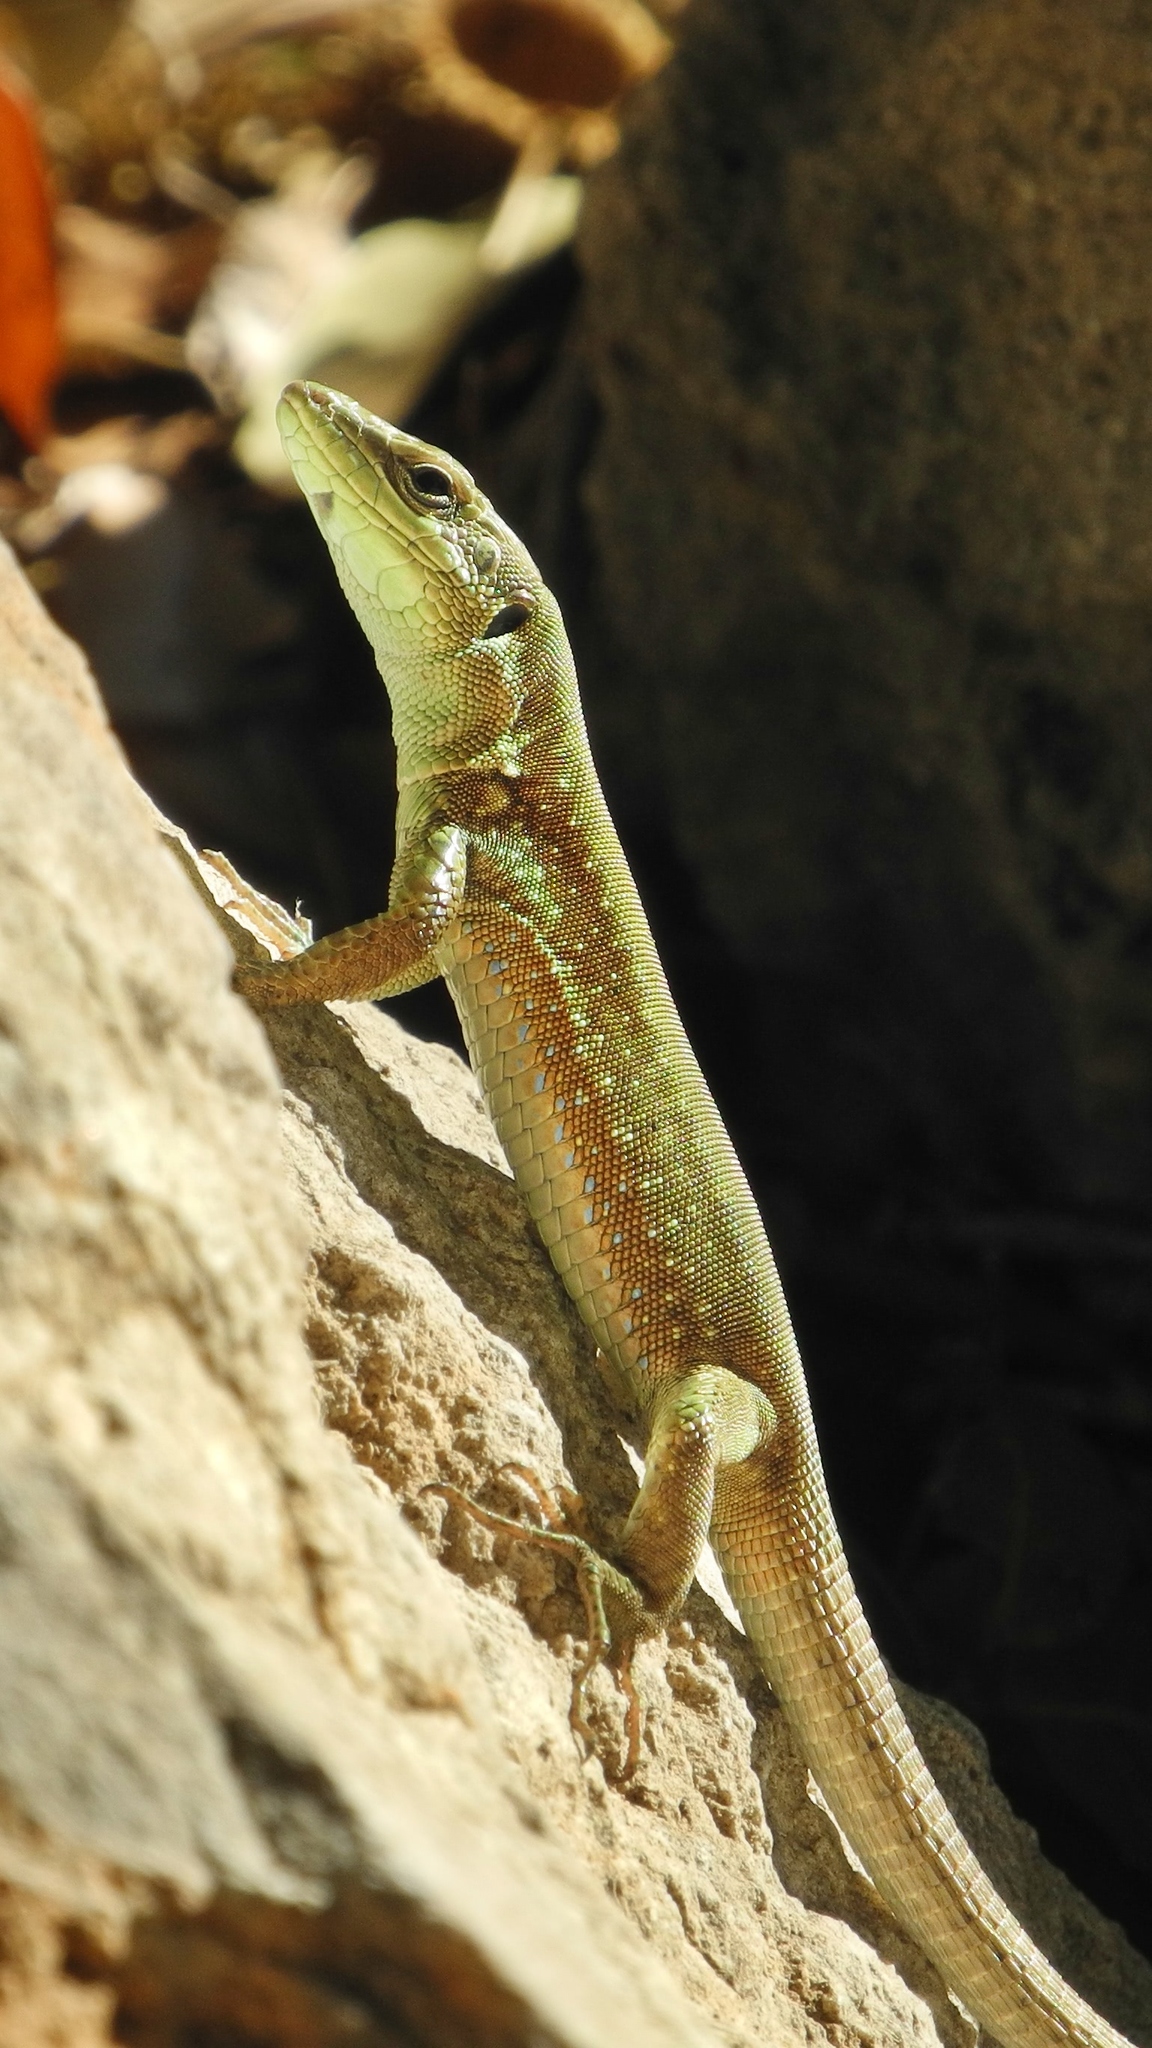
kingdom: Animalia
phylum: Chordata
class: Squamata
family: Lacertidae
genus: Phoenicolacerta
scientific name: Phoenicolacerta laevis
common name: Lebanon lizard
